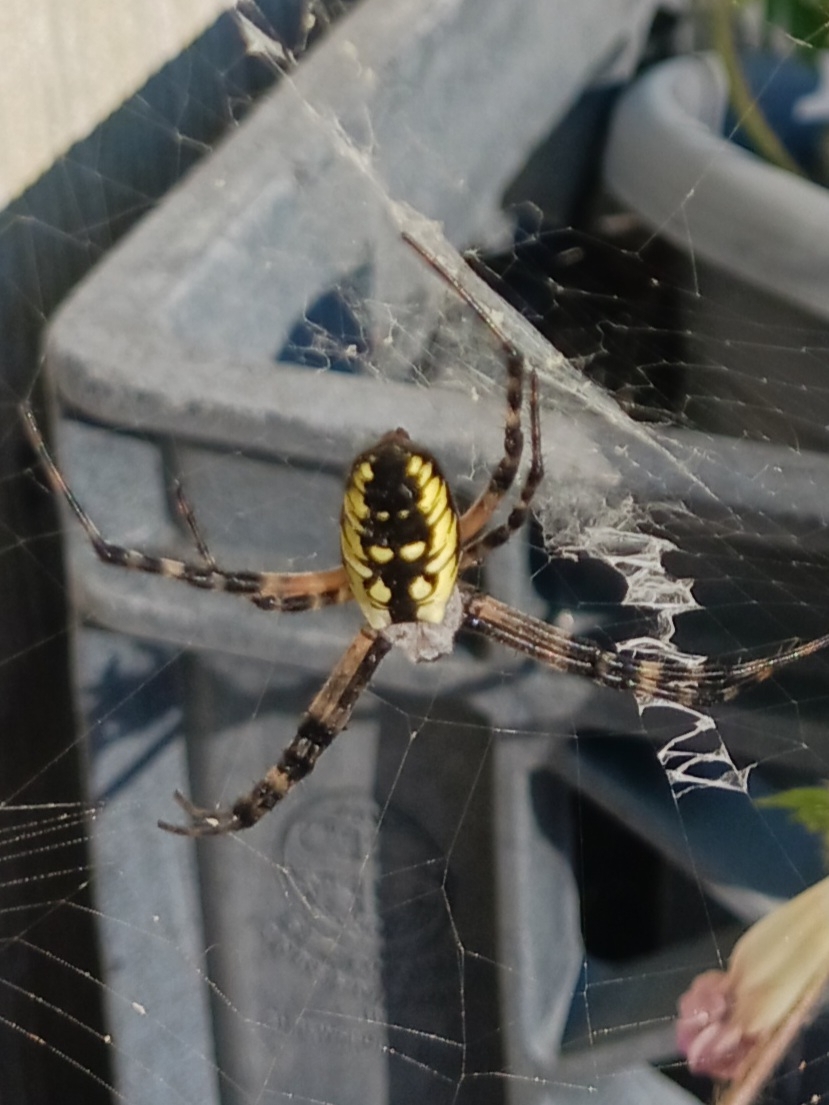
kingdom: Animalia
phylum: Arthropoda
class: Arachnida
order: Araneae
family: Araneidae
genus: Argiope
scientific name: Argiope aurantia
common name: Orb weavers
